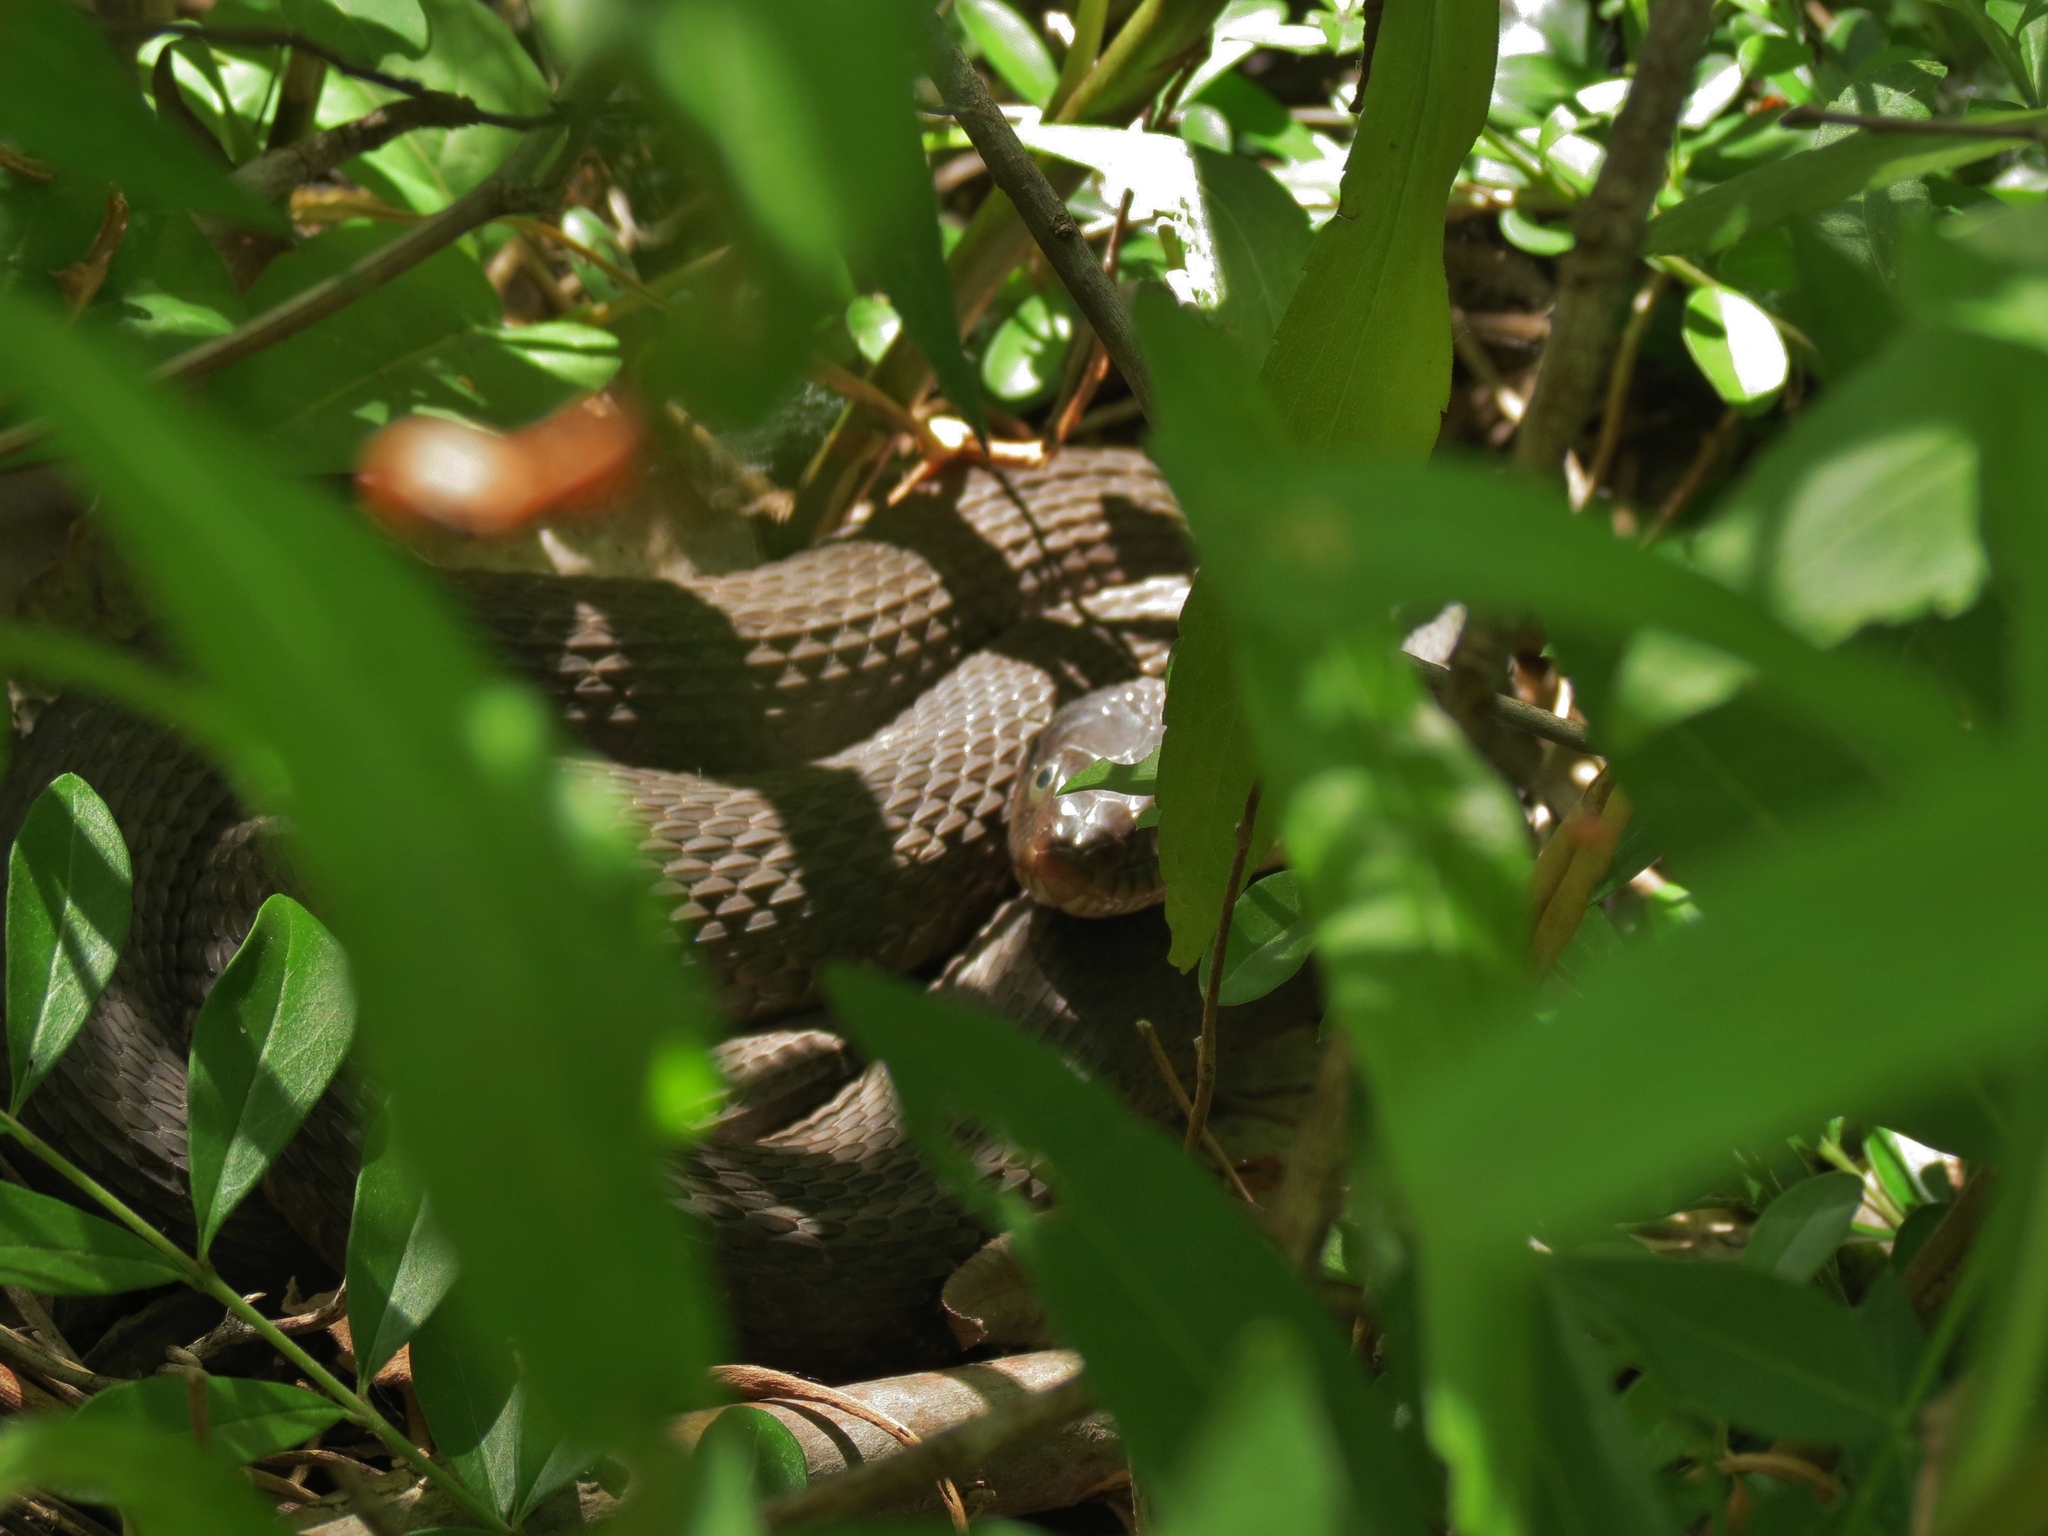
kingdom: Animalia
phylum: Chordata
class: Squamata
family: Colubridae
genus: Nerodia
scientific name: Nerodia erythrogaster
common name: Plainbelly water snake
